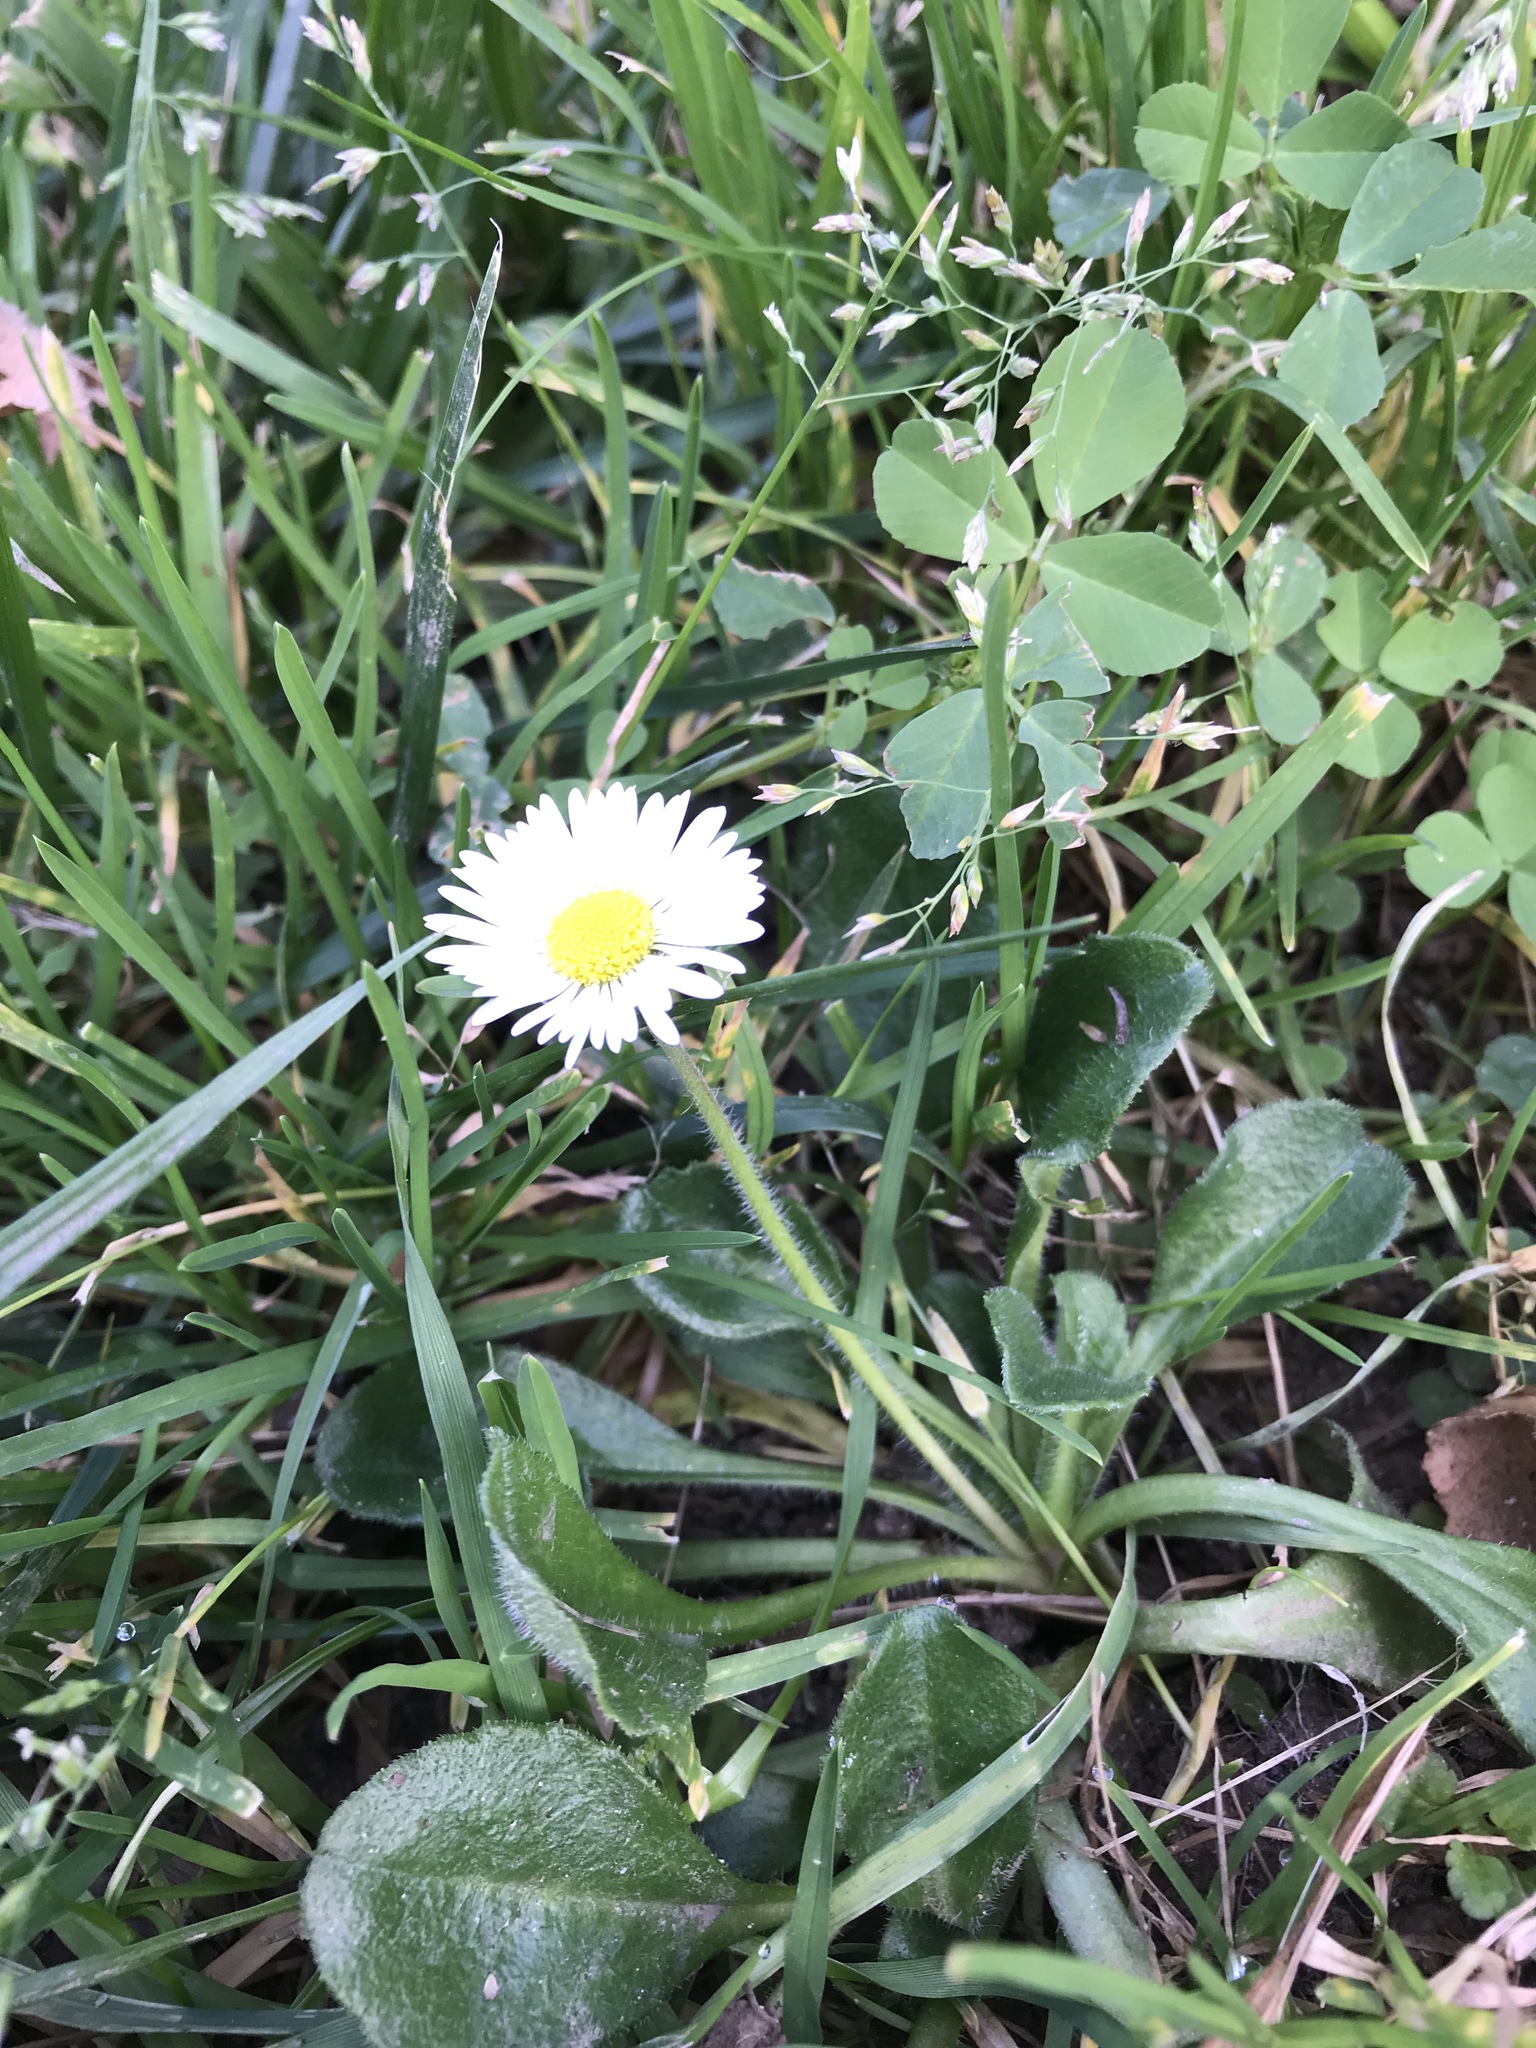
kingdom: Plantae
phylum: Tracheophyta
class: Magnoliopsida
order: Asterales
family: Asteraceae
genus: Bellis
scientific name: Bellis perennis
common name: Lawndaisy
